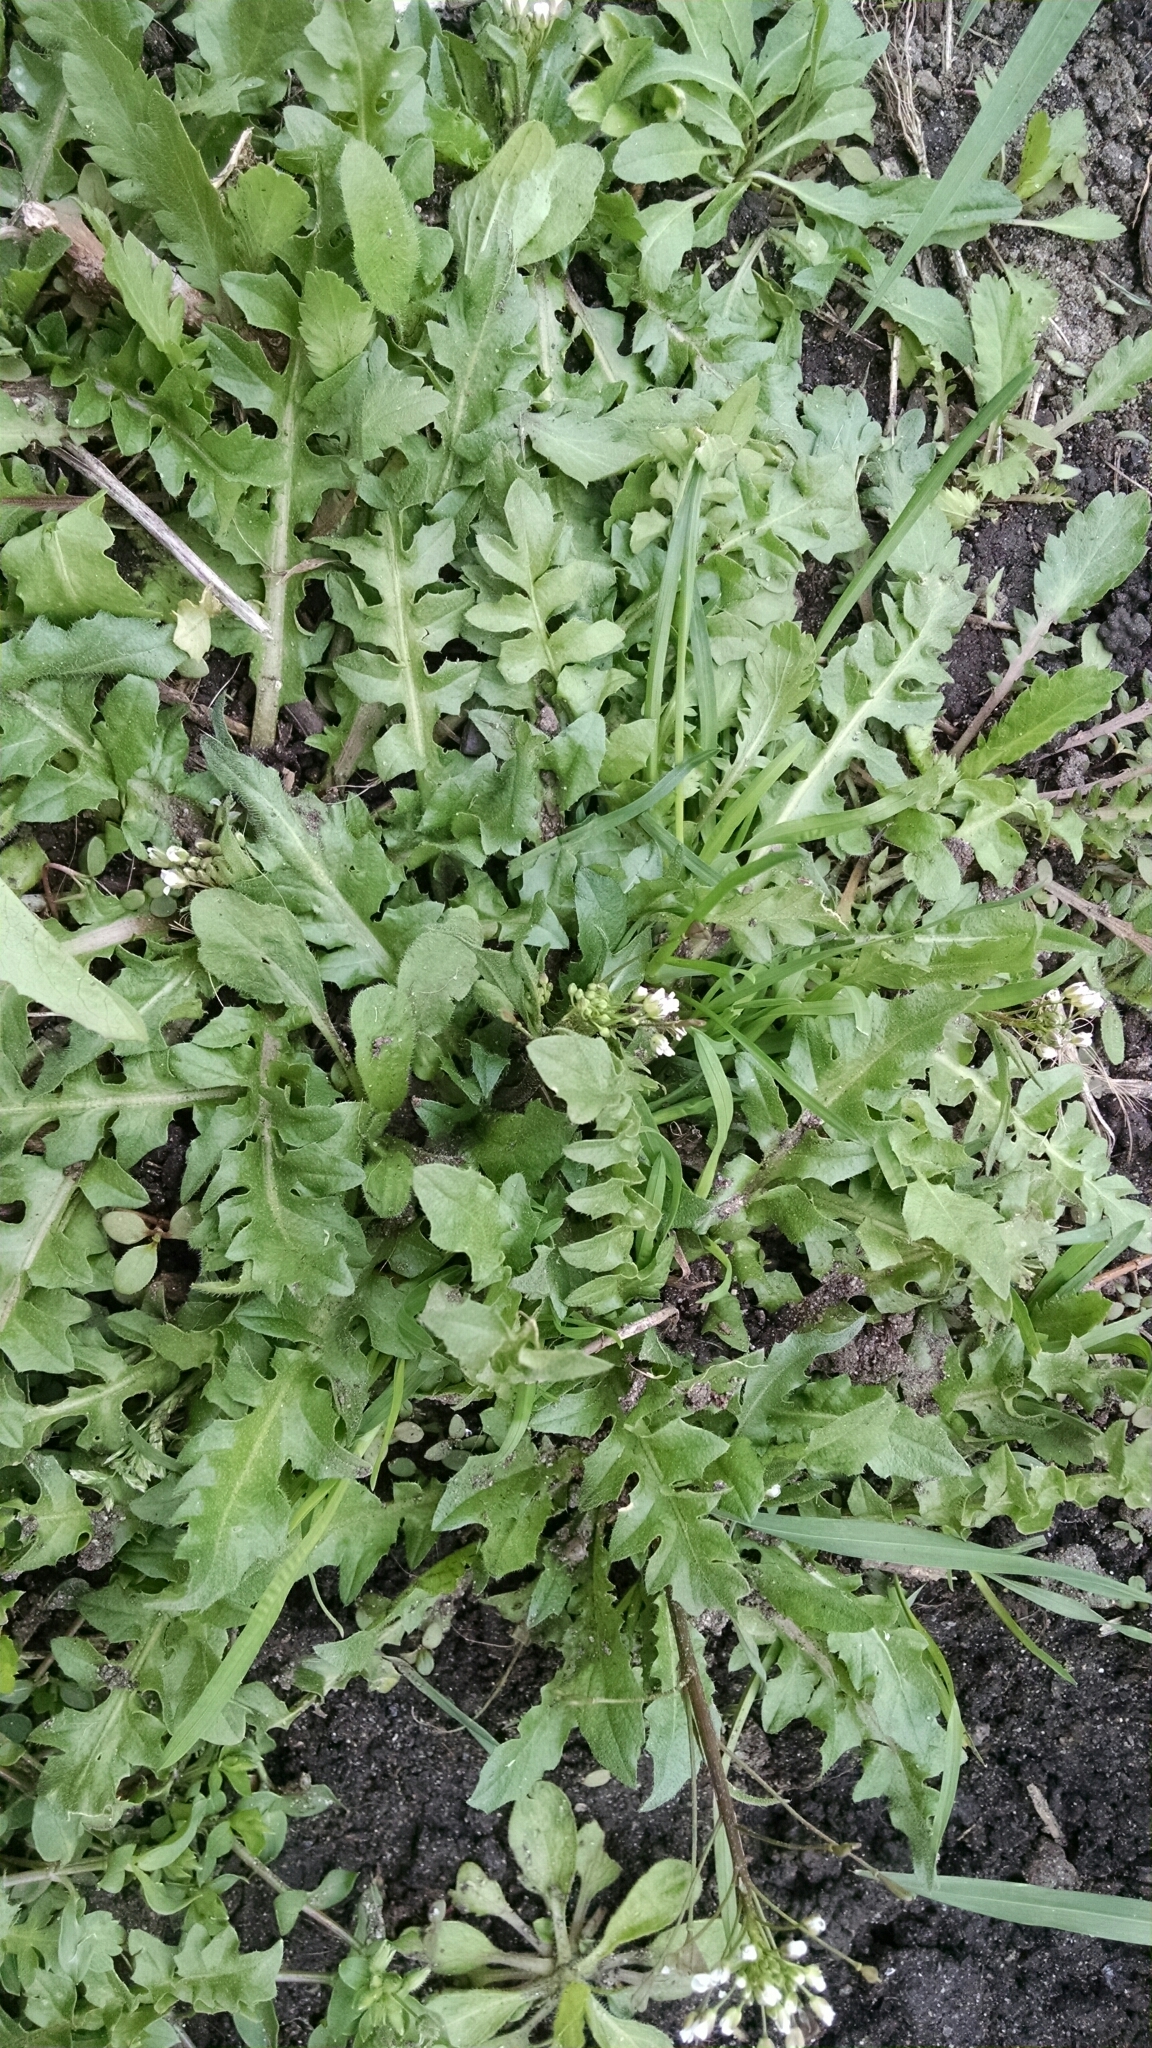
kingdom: Plantae
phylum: Tracheophyta
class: Magnoliopsida
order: Brassicales
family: Brassicaceae
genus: Capsella
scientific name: Capsella bursa-pastoris
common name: Shepherd's purse
